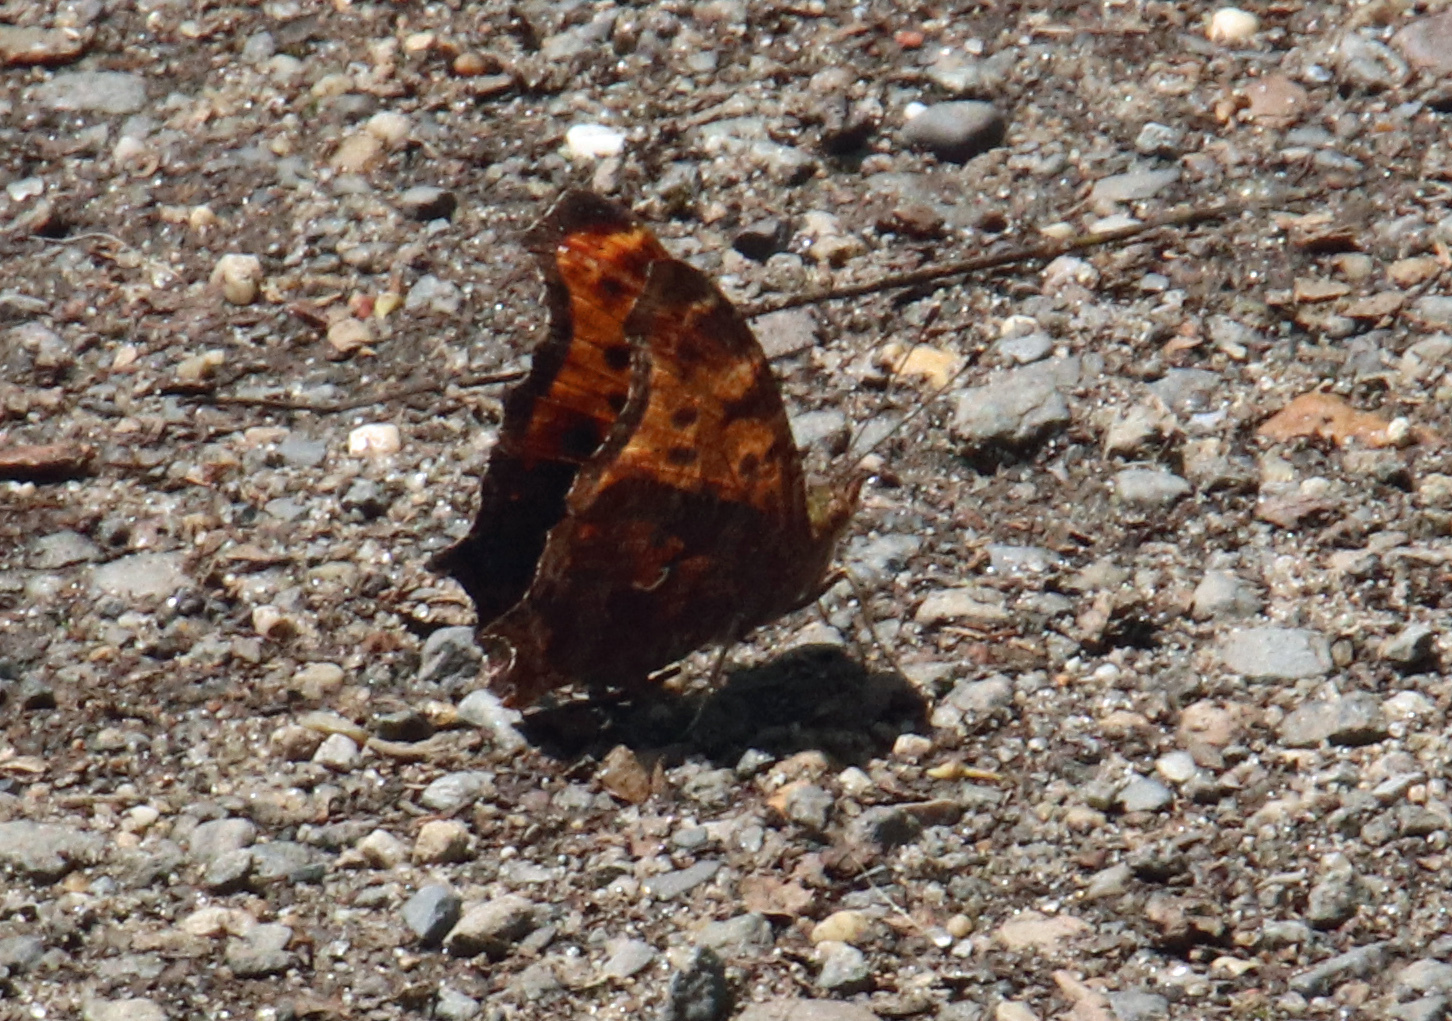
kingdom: Animalia
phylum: Arthropoda
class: Insecta
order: Lepidoptera
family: Nymphalidae
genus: Polygonia
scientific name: Polygonia comma
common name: Eastern comma
